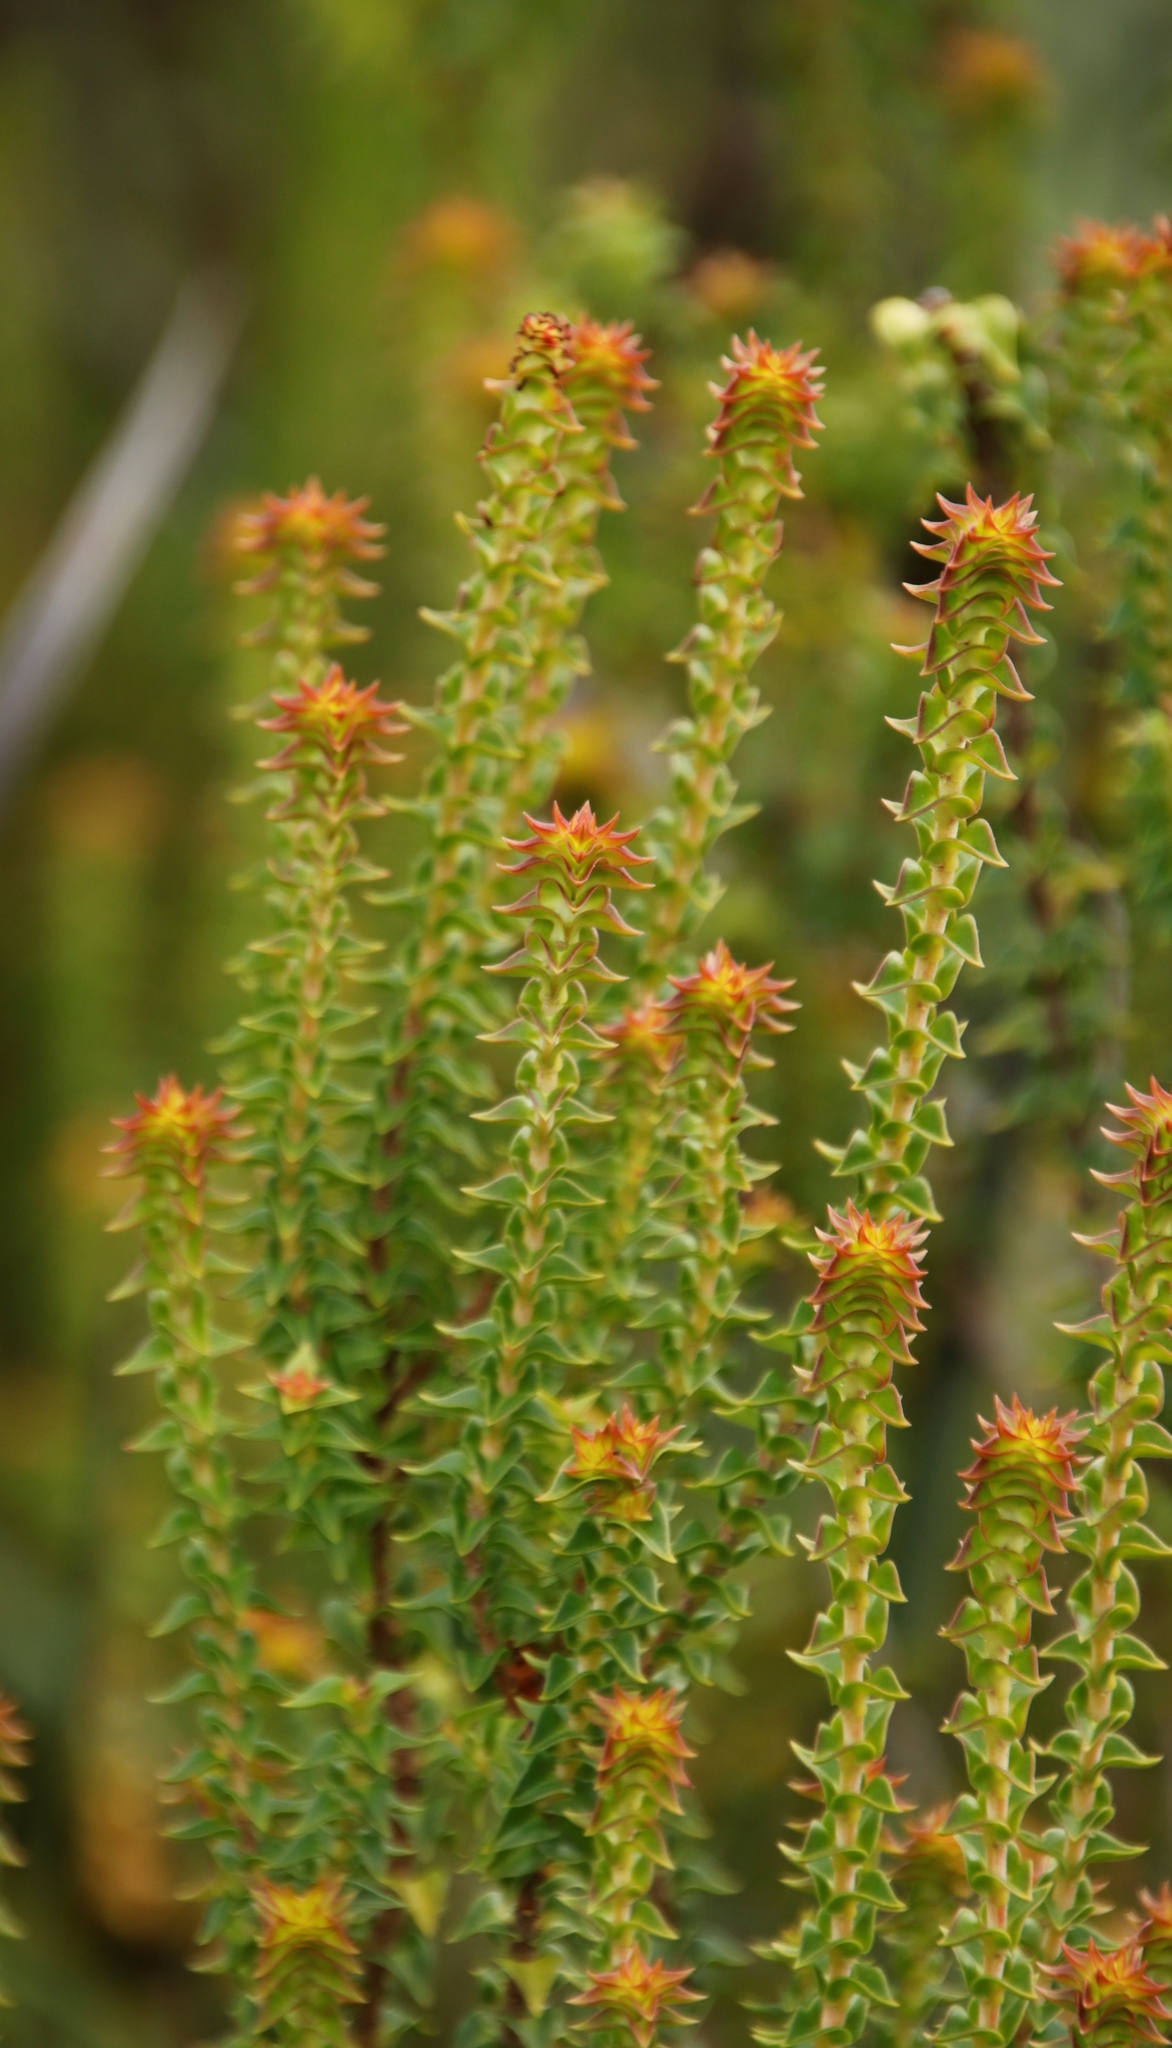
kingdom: Plantae
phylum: Tracheophyta
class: Magnoliopsida
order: Myrtales
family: Penaeaceae
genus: Penaea
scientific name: Penaea cneorum
